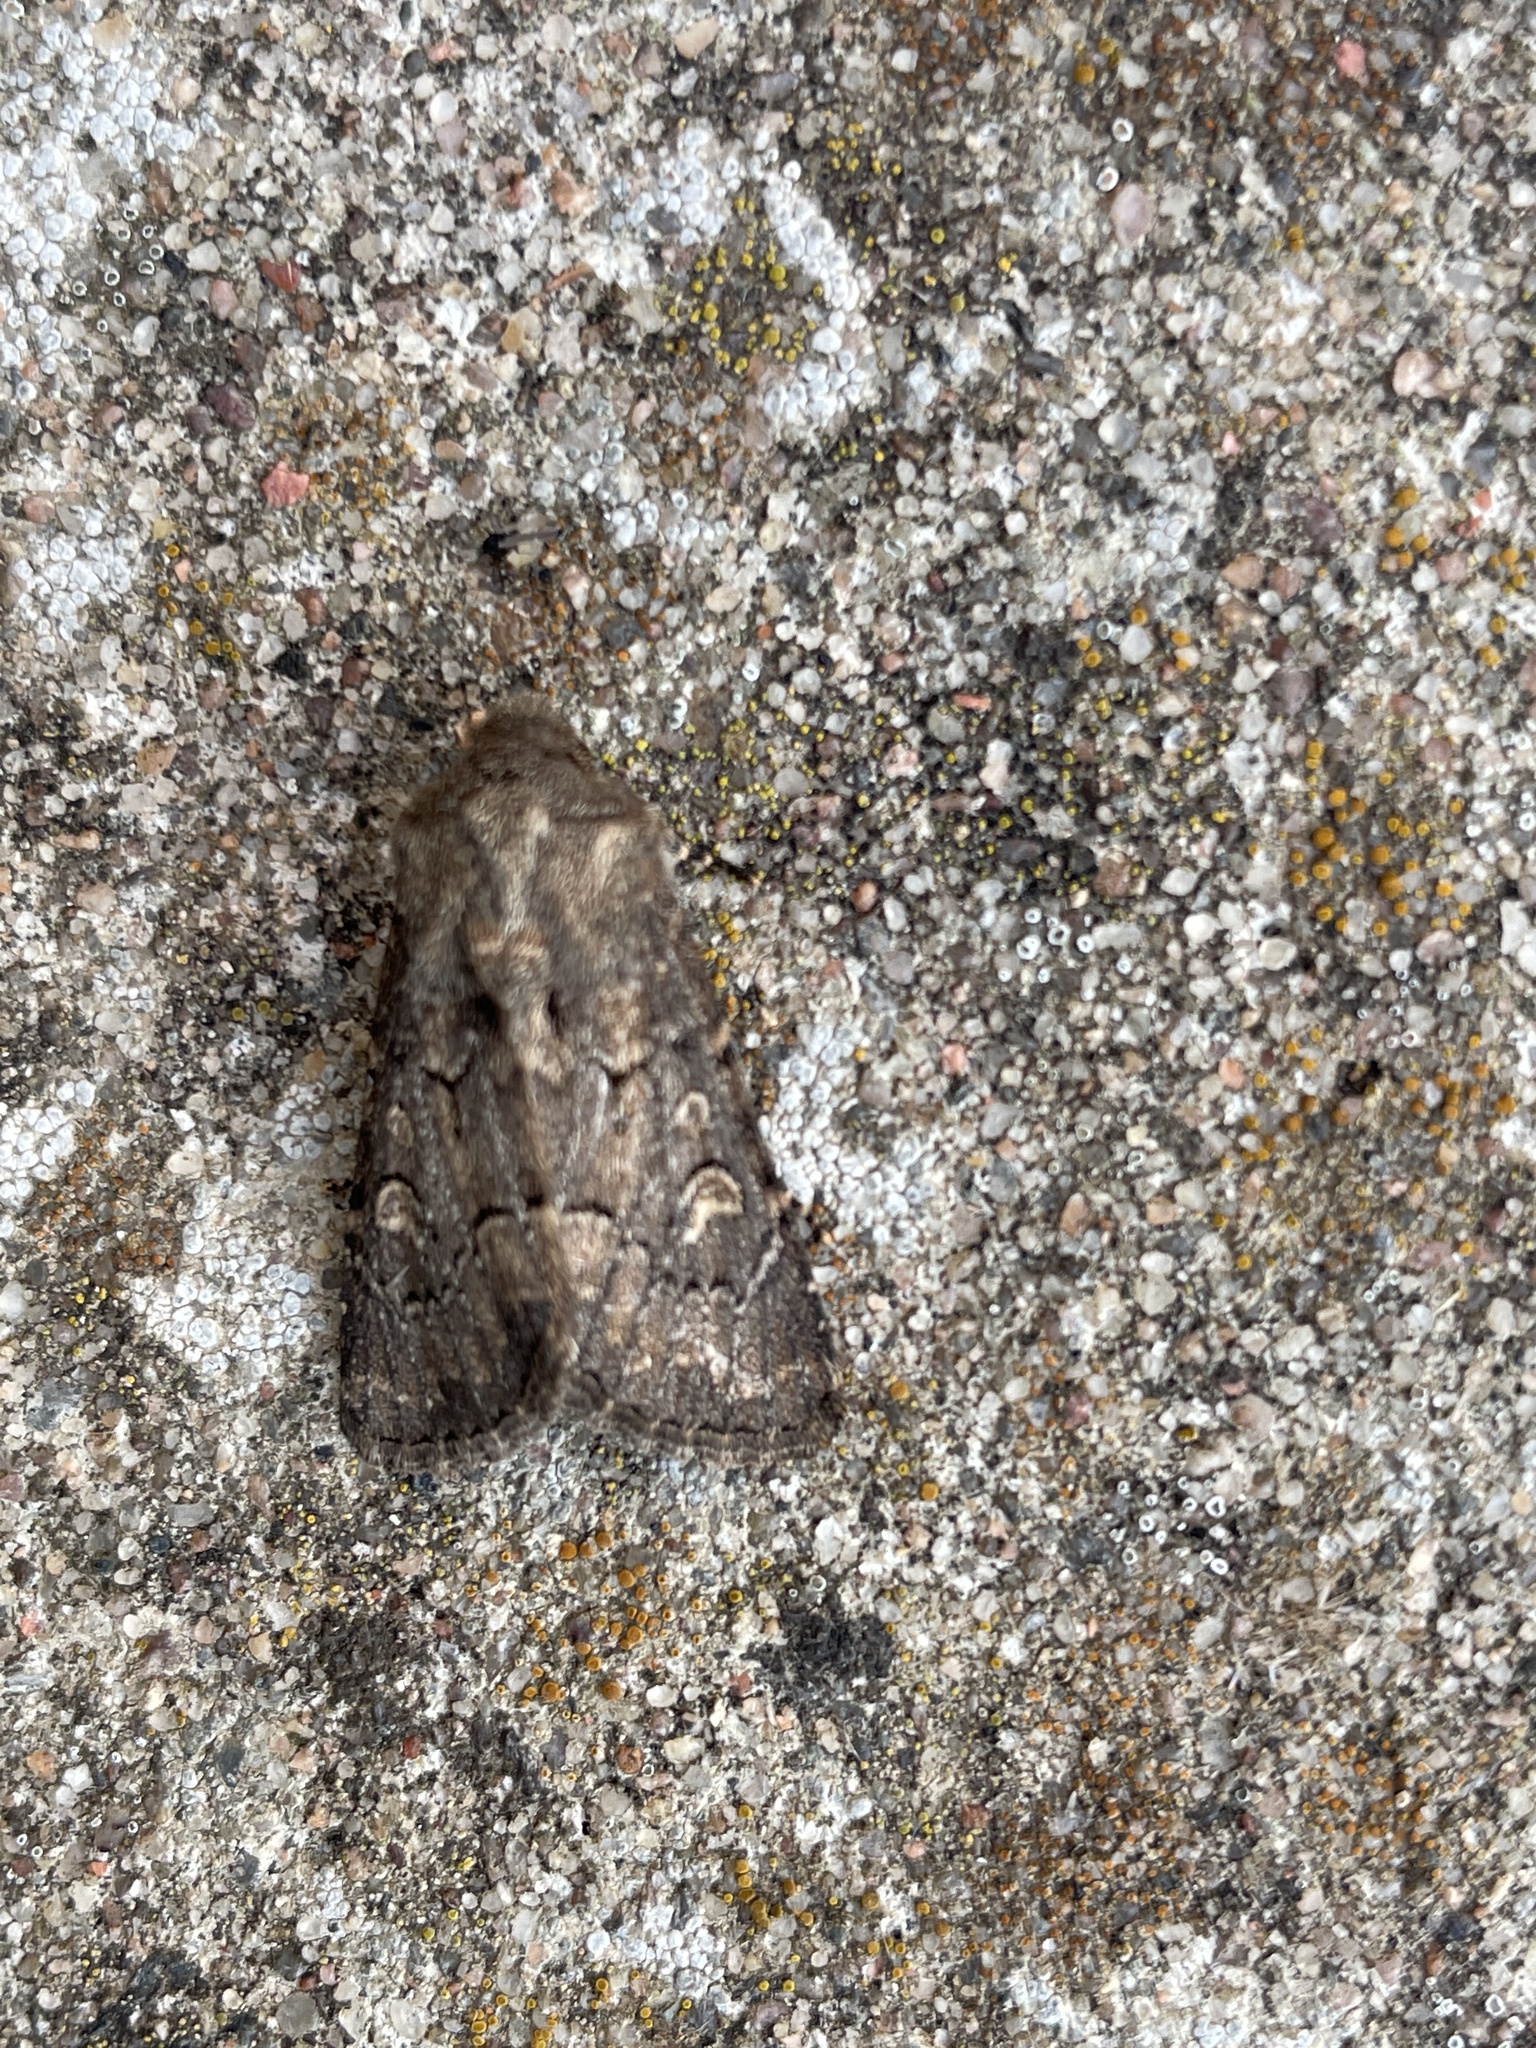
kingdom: Animalia
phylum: Arthropoda
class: Insecta
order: Lepidoptera
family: Noctuidae
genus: Luperina
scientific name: Luperina testacea
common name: Flounced rustic
